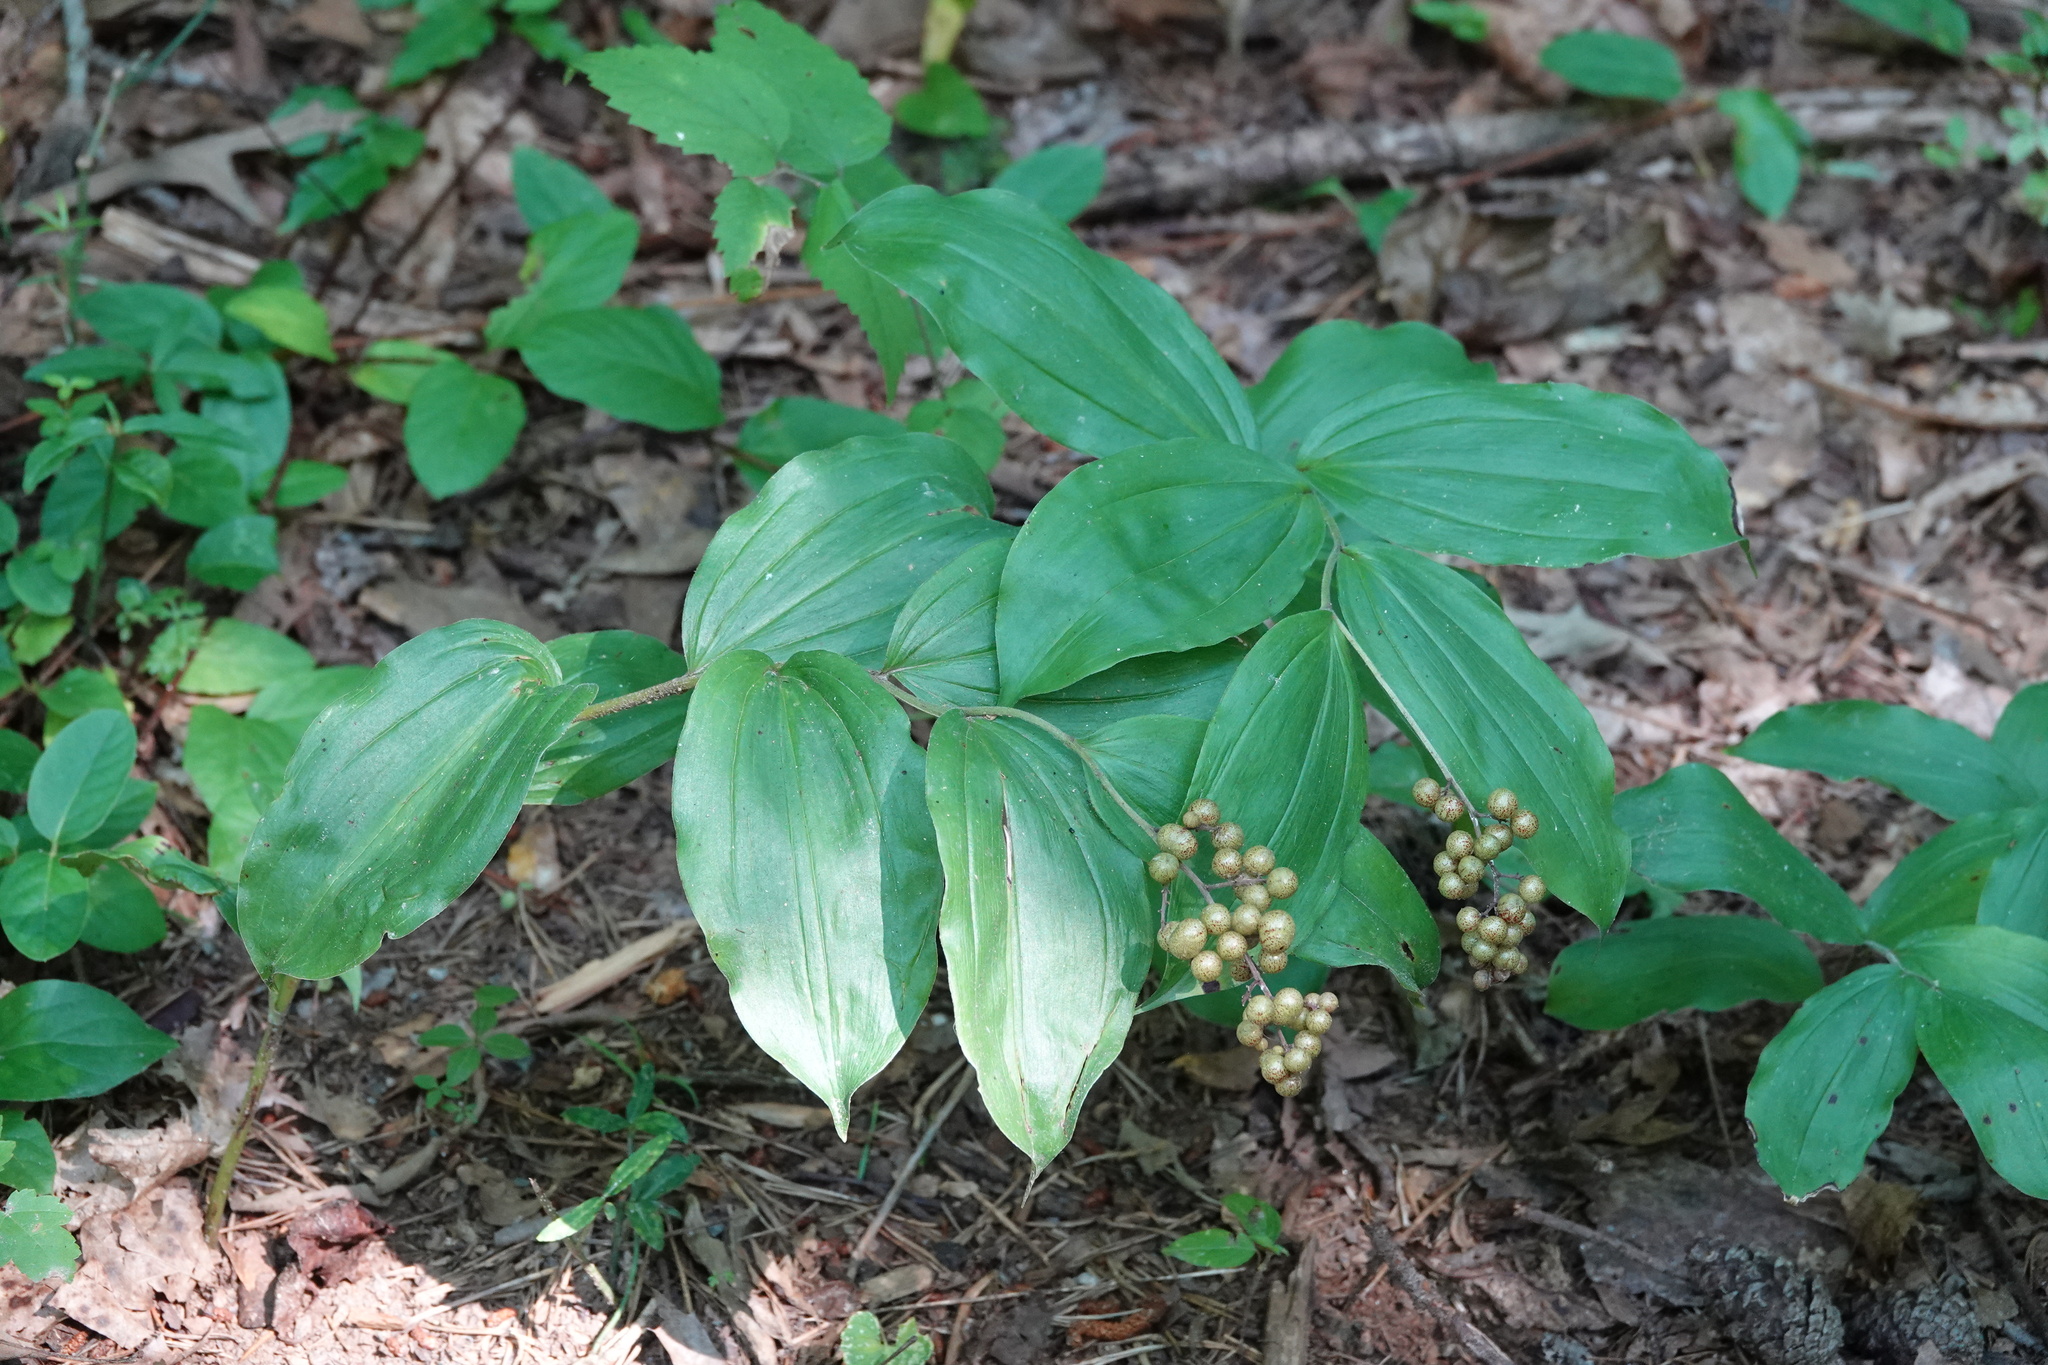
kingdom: Plantae
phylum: Tracheophyta
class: Liliopsida
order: Asparagales
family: Asparagaceae
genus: Maianthemum
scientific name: Maianthemum racemosum
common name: False spikenard
